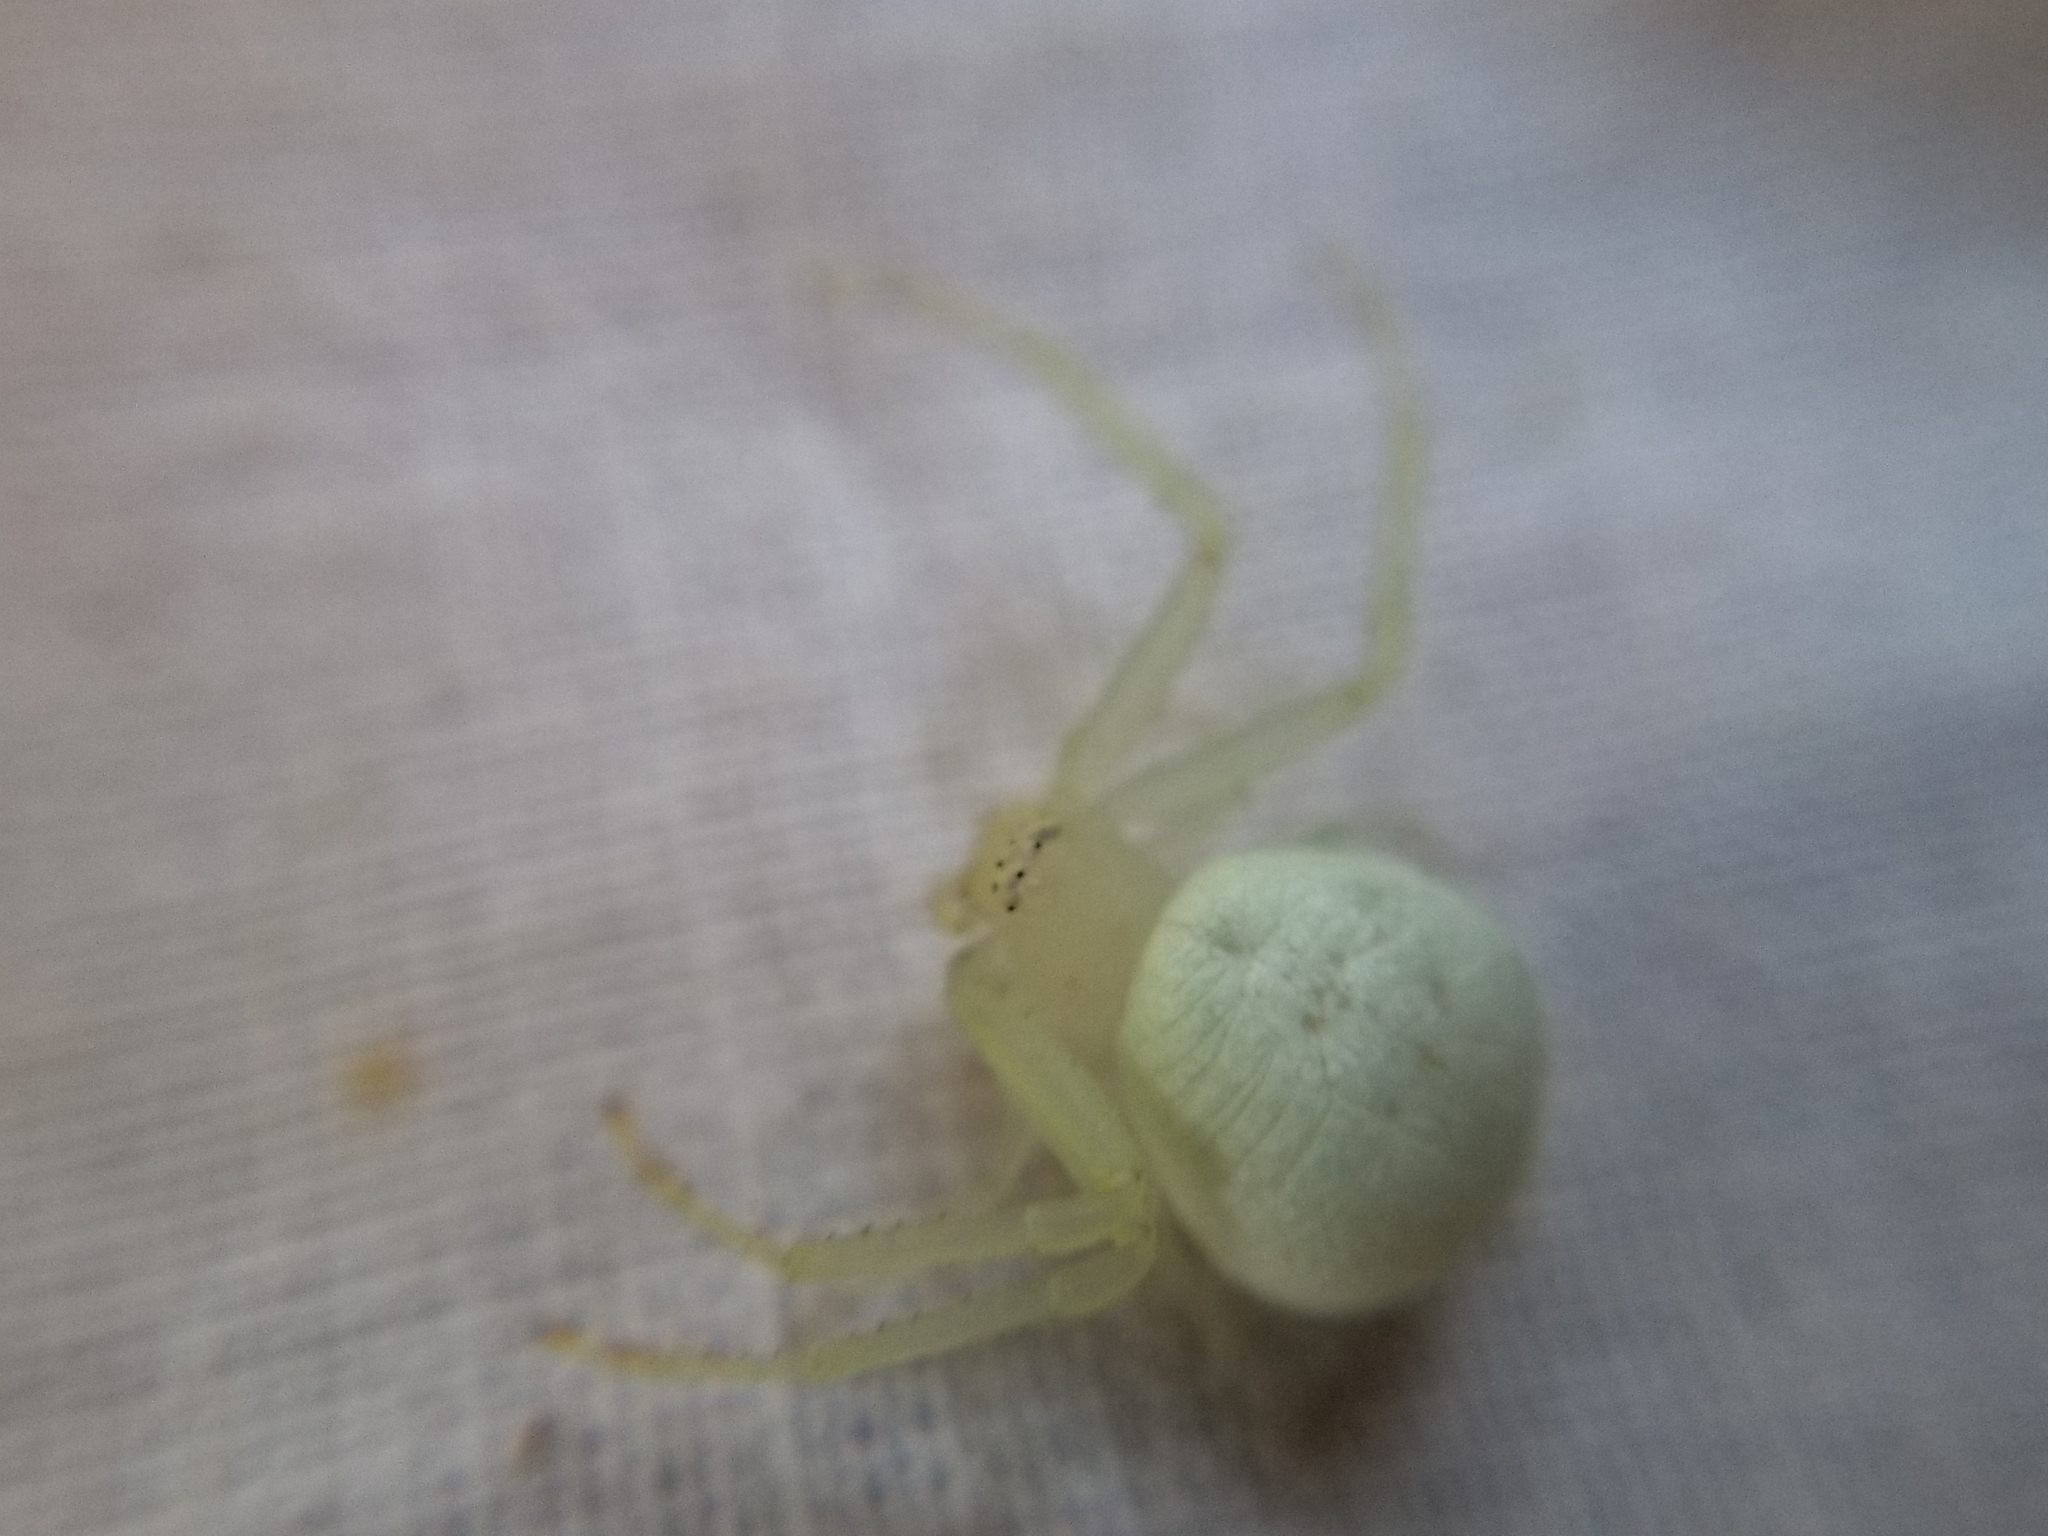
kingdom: Animalia
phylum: Arthropoda
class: Arachnida
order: Araneae
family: Thomisidae
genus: Misumena
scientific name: Misumena vatia
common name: Goldenrod crab spider
